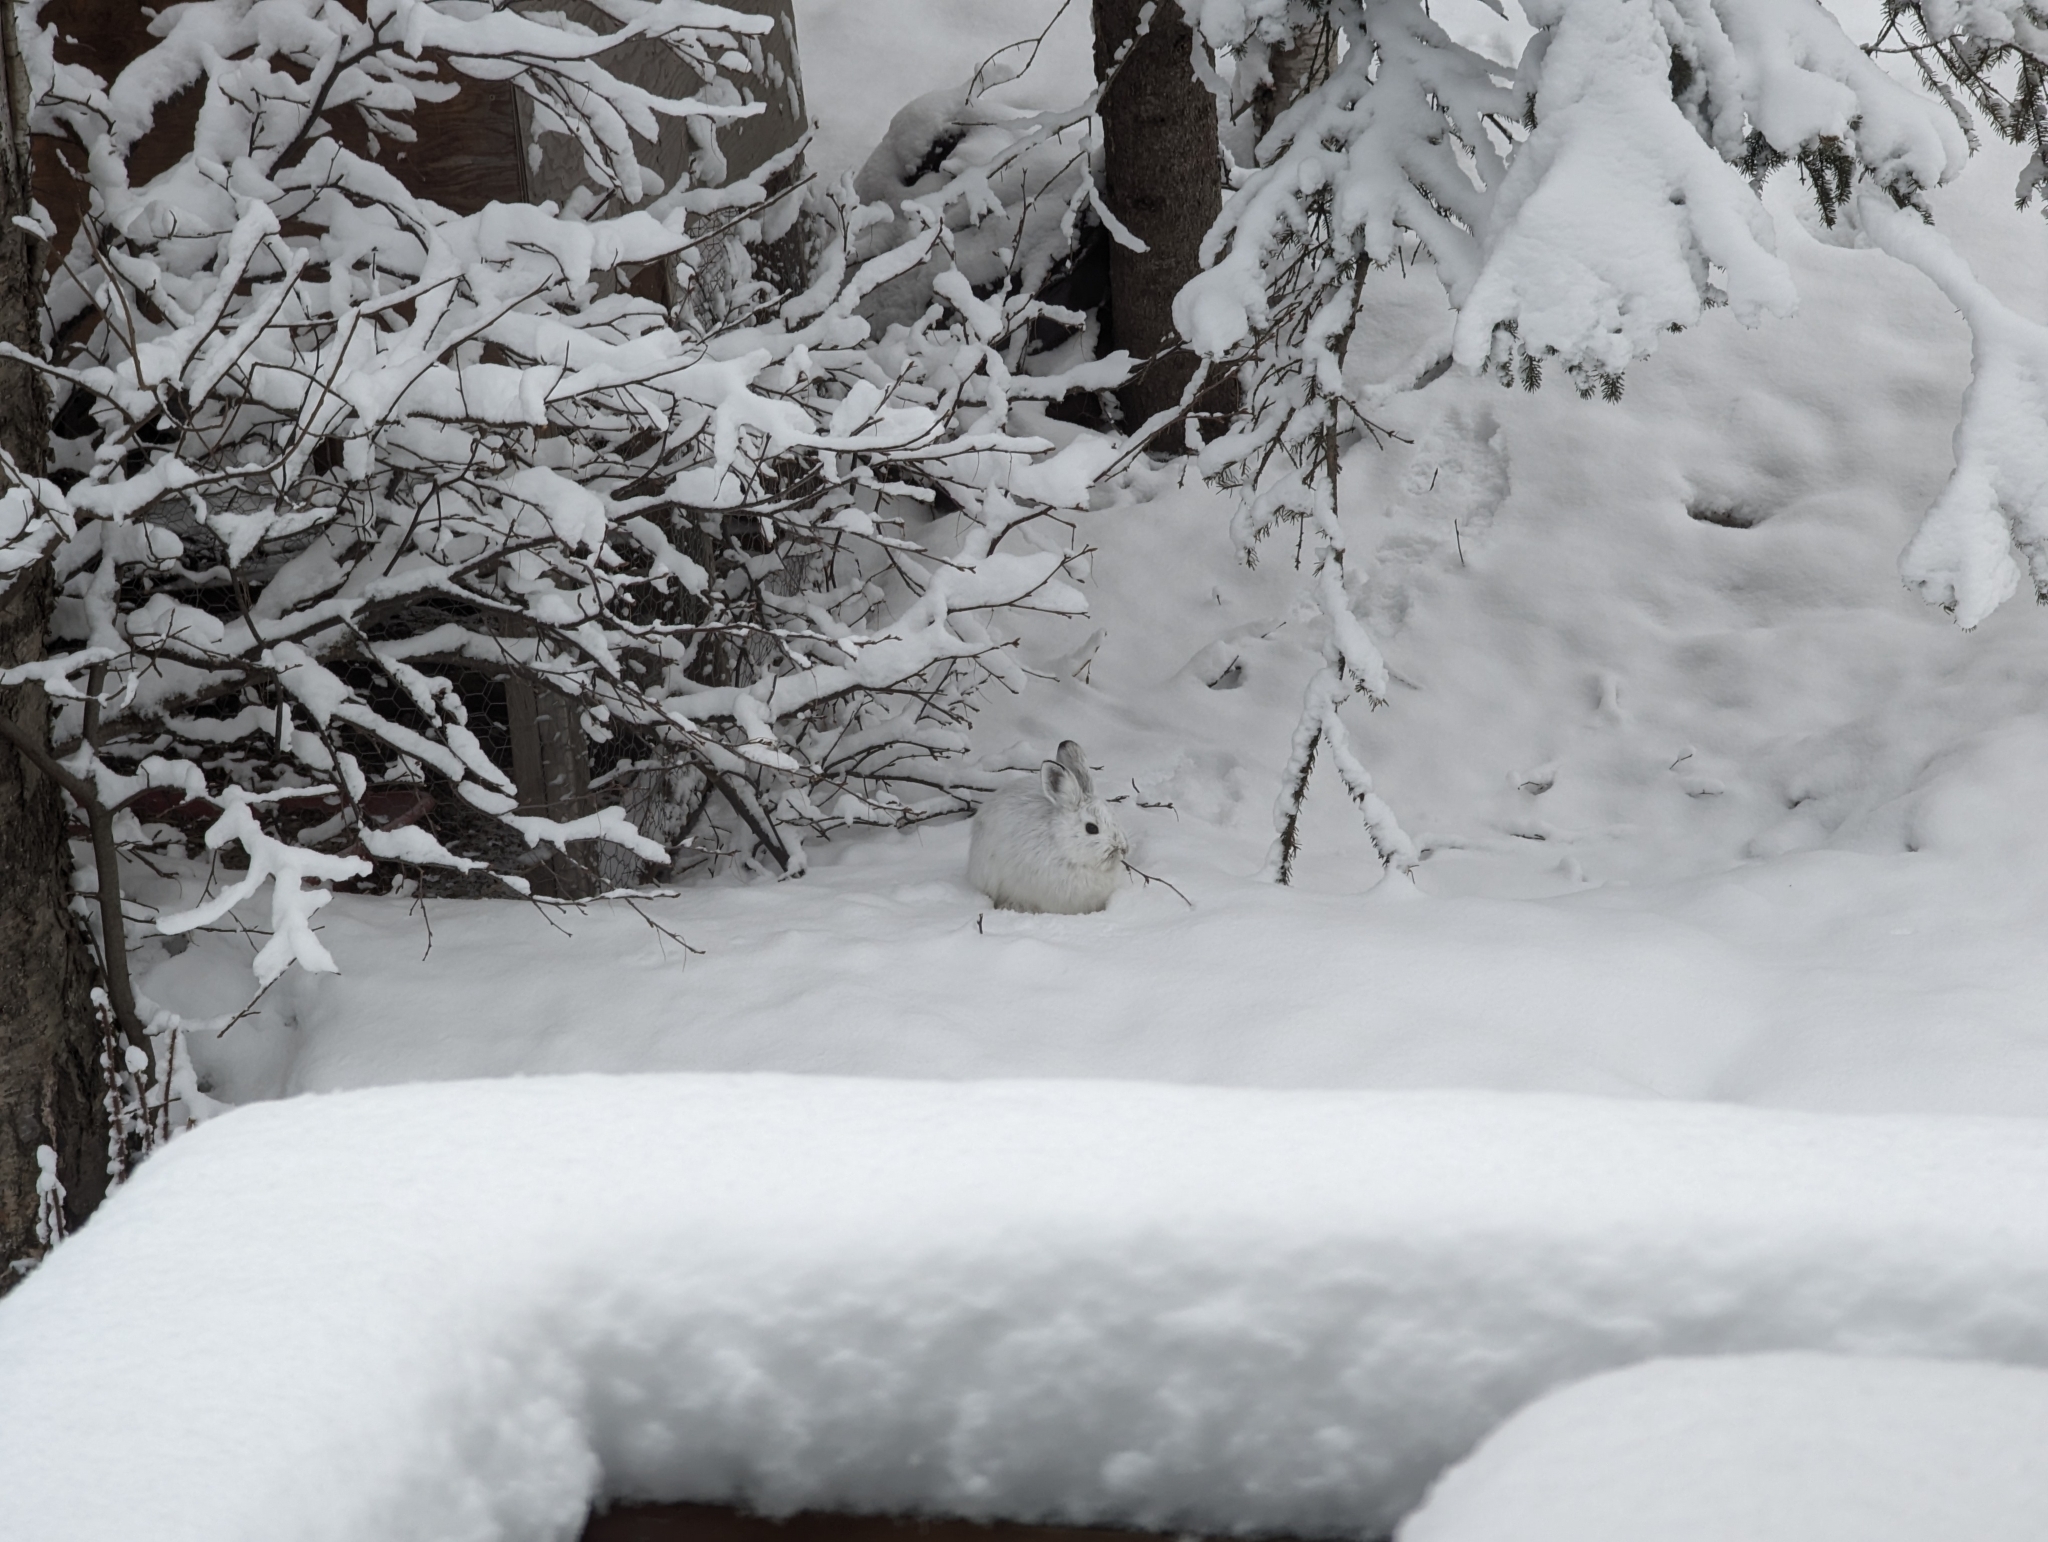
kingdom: Animalia
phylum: Chordata
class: Mammalia
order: Lagomorpha
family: Leporidae
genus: Lepus
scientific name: Lepus americanus
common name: Snowshoe hare
